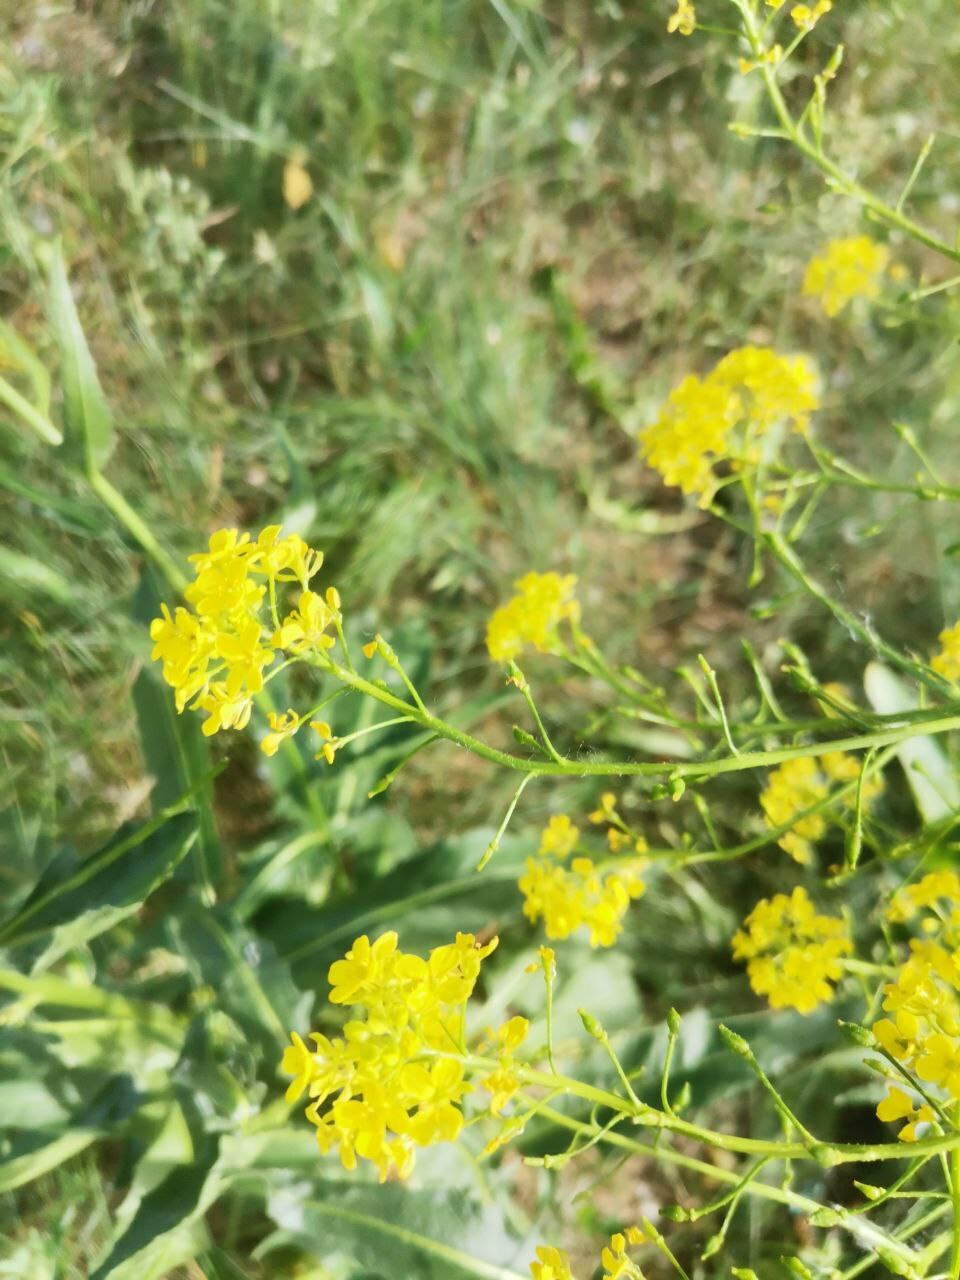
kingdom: Plantae
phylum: Tracheophyta
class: Magnoliopsida
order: Brassicales
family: Brassicaceae
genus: Bunias
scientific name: Bunias orientalis
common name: Warty-cabbage
